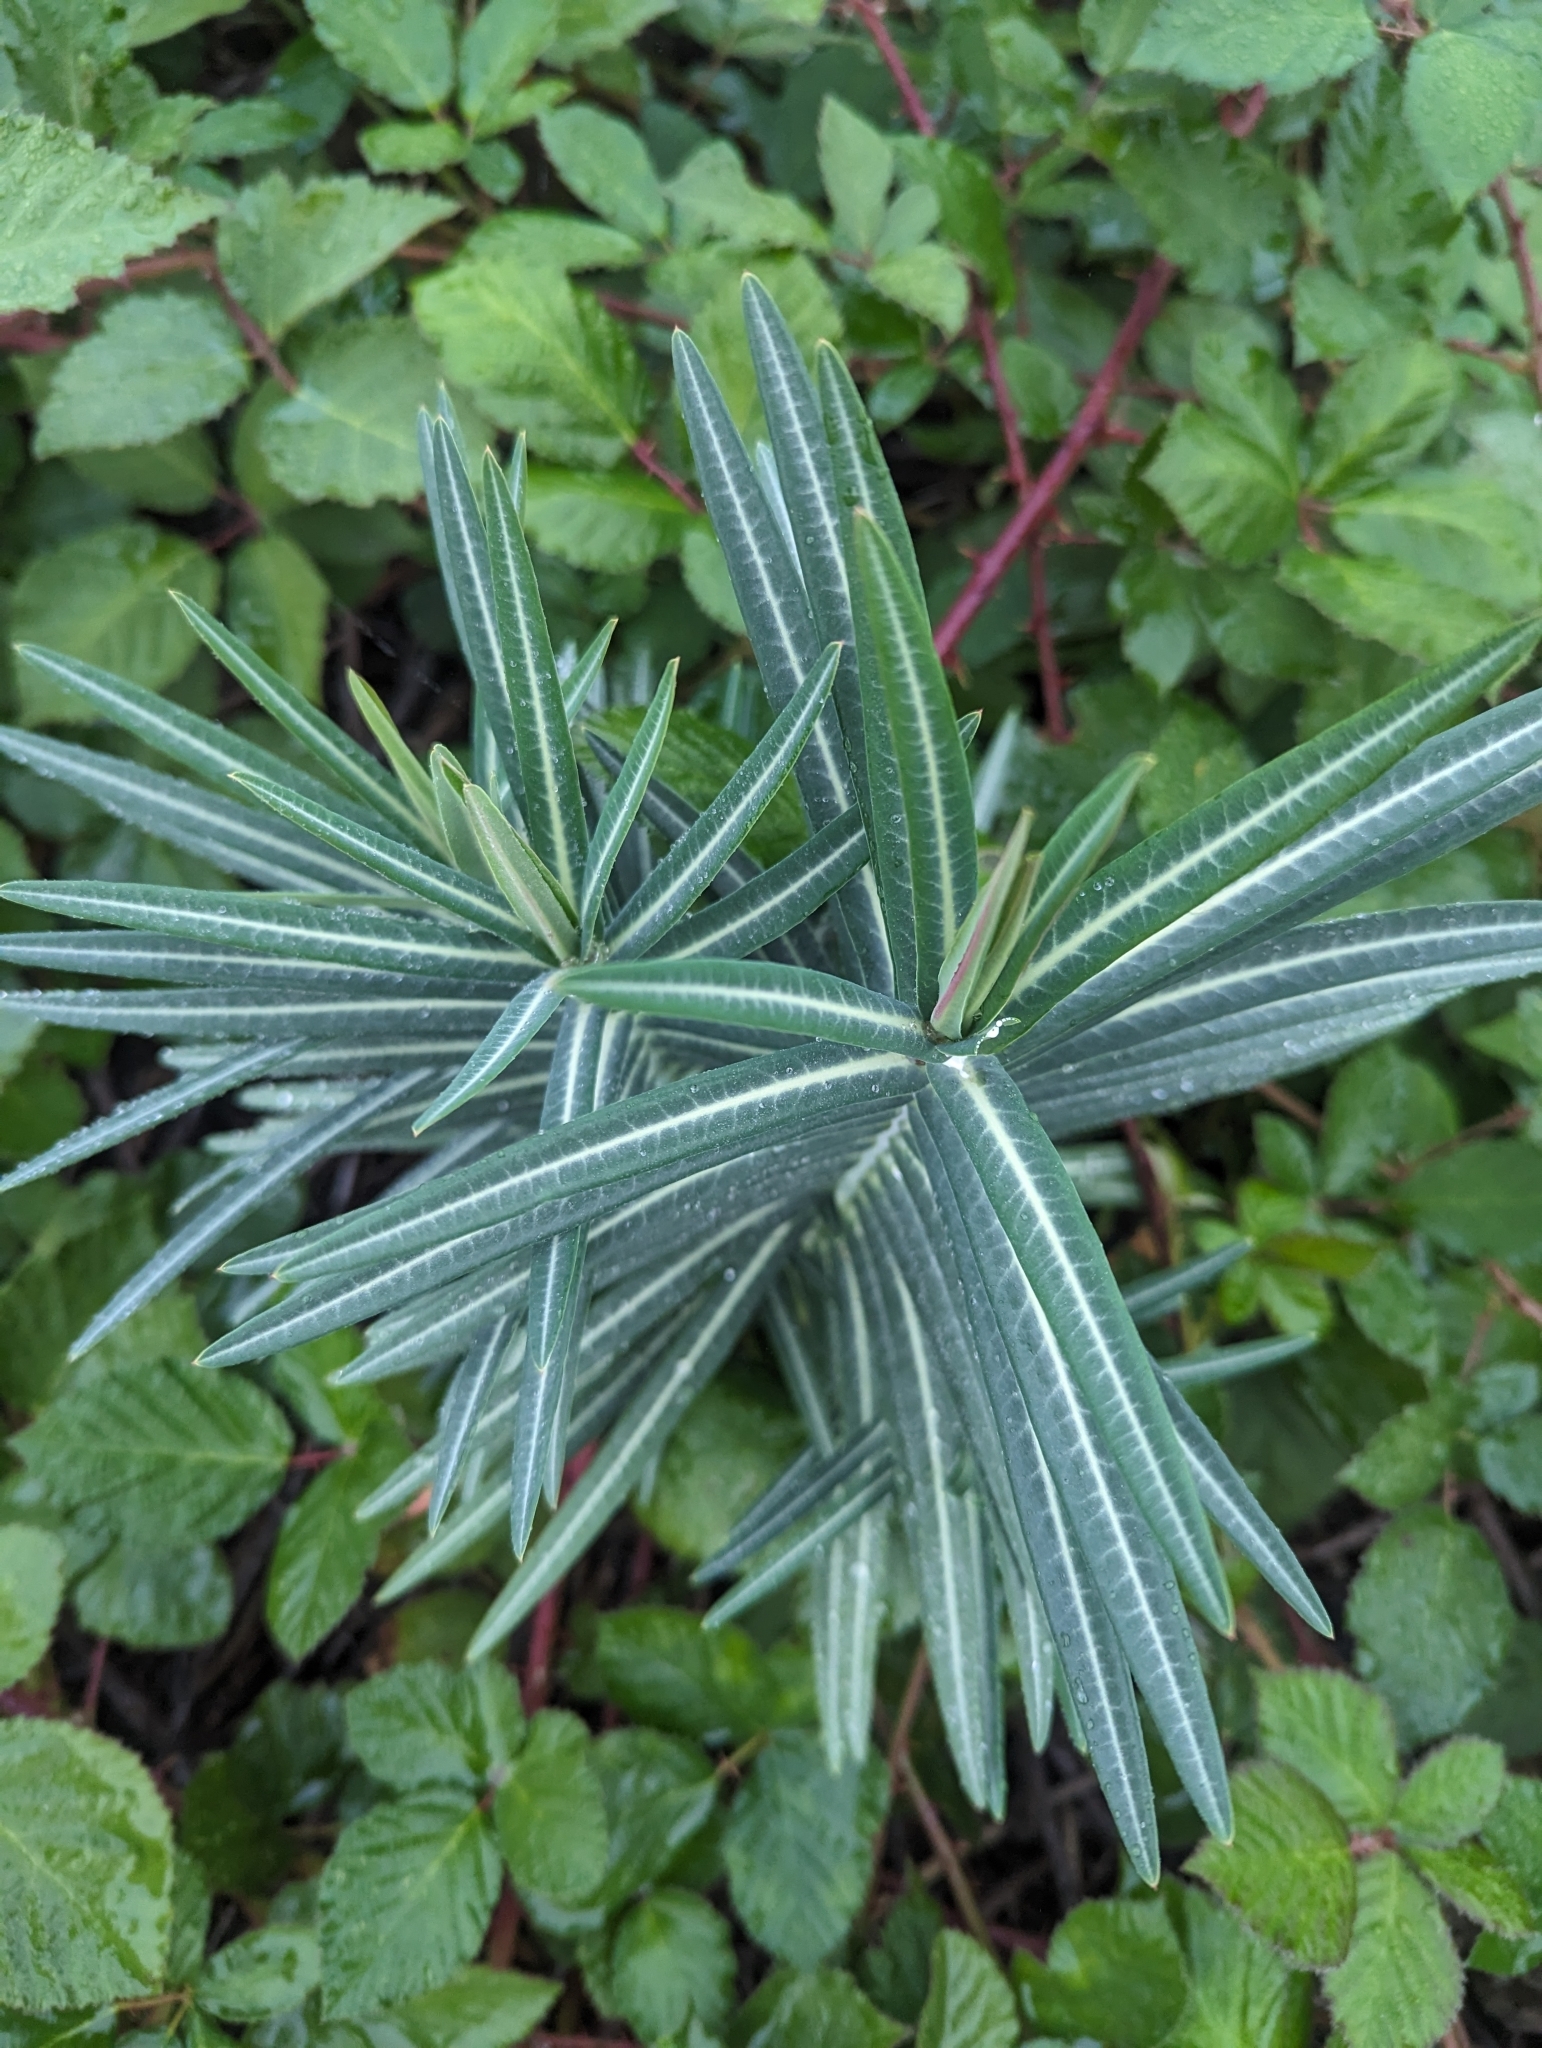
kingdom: Plantae
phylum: Tracheophyta
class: Magnoliopsida
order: Malpighiales
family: Euphorbiaceae
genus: Euphorbia
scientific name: Euphorbia lathyris
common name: Caper spurge
